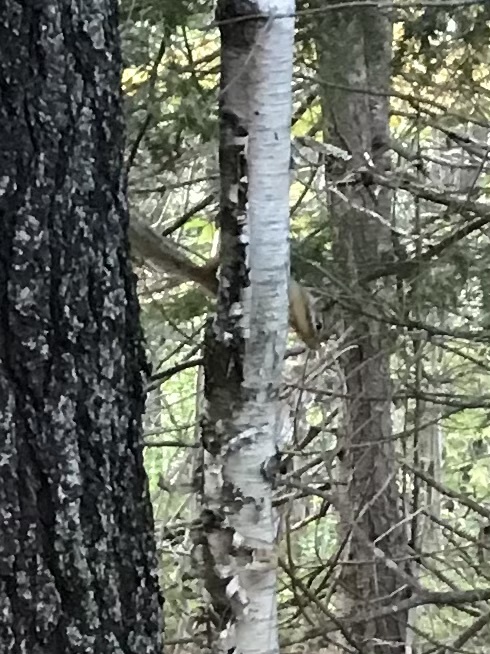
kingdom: Animalia
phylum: Chordata
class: Mammalia
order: Rodentia
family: Sciuridae
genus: Tamias
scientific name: Tamias striatus
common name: Eastern chipmunk
